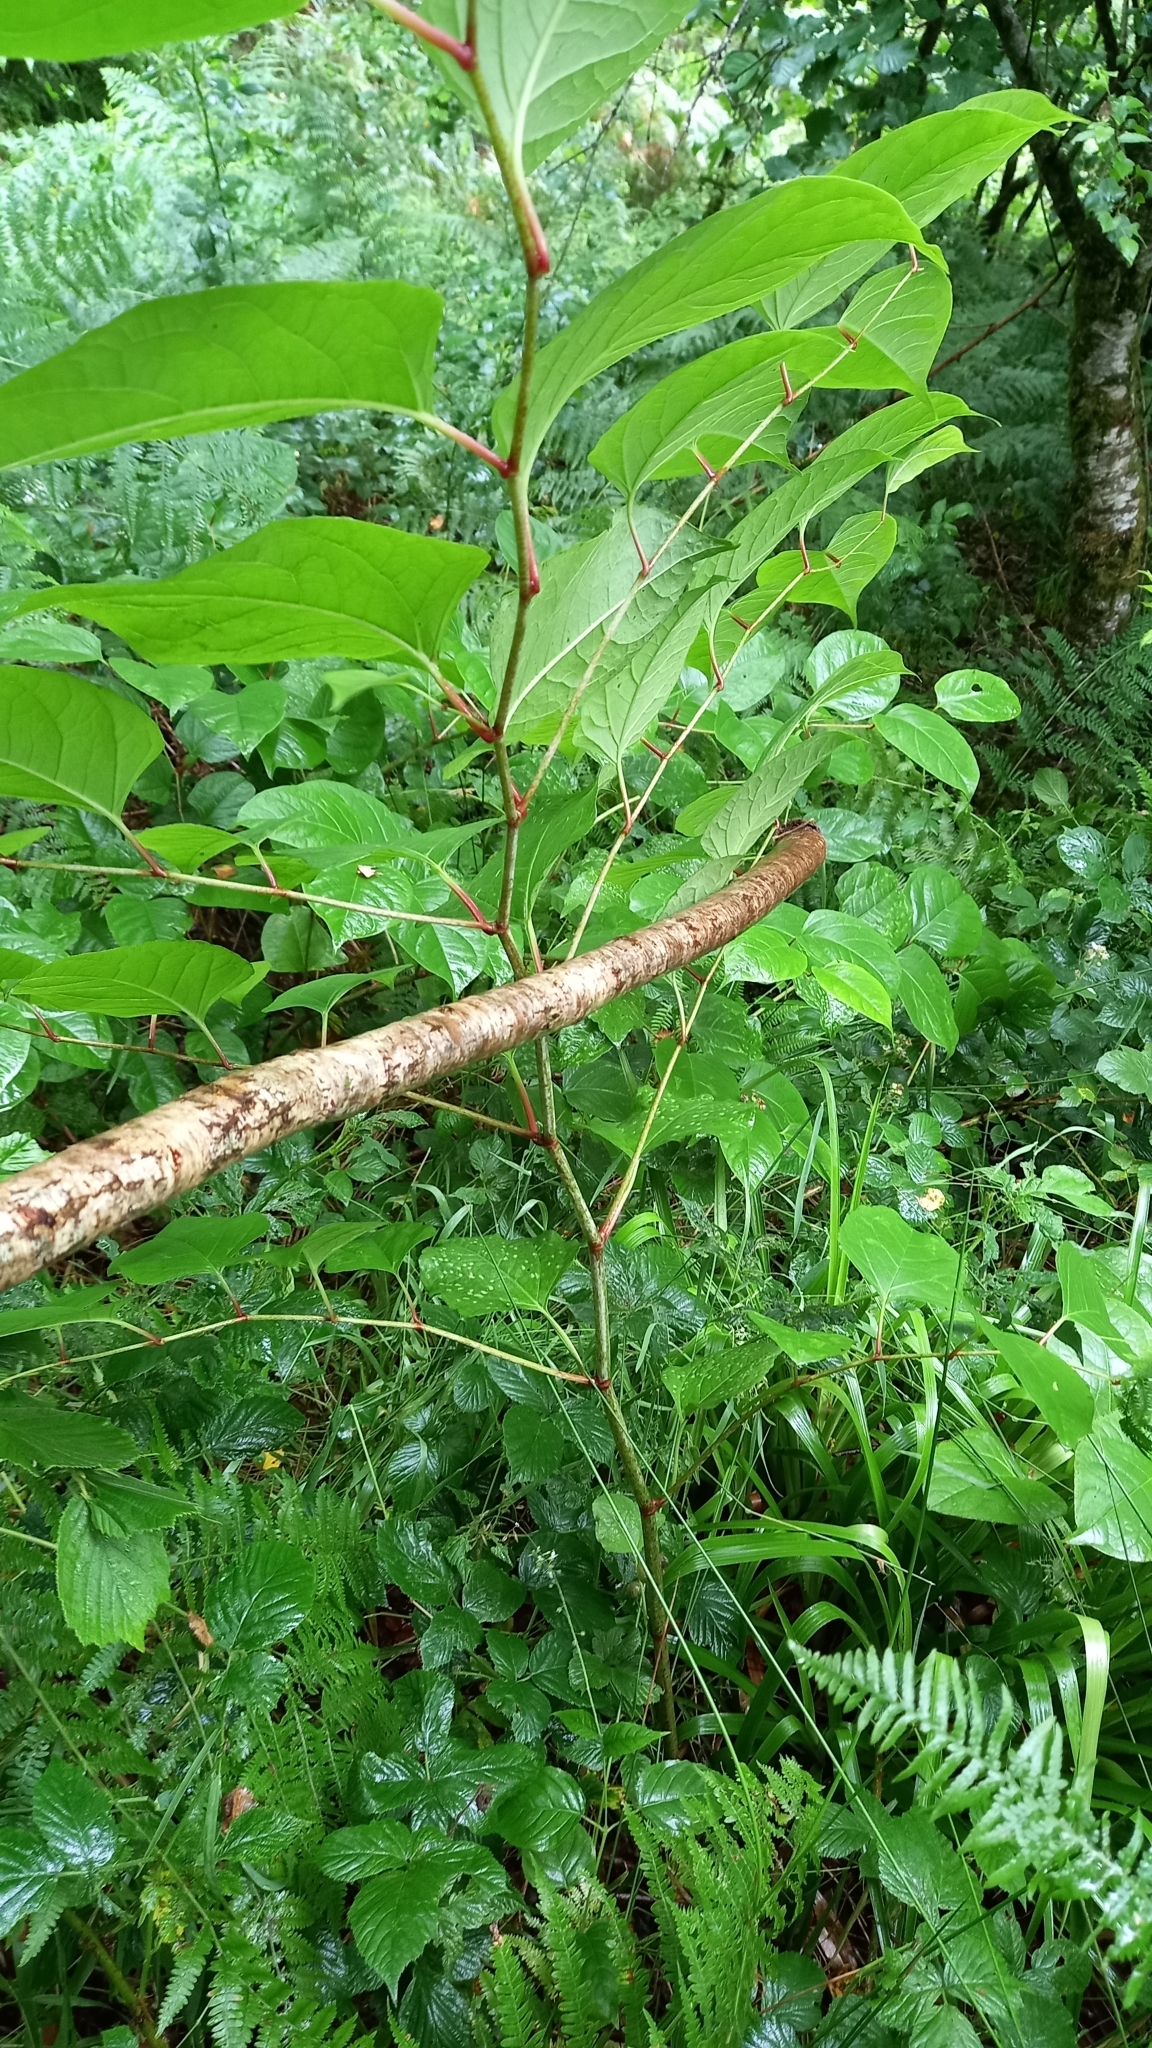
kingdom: Plantae
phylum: Tracheophyta
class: Magnoliopsida
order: Caryophyllales
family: Polygonaceae
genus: Reynoutria
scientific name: Reynoutria japonica
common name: Japanese knotweed
